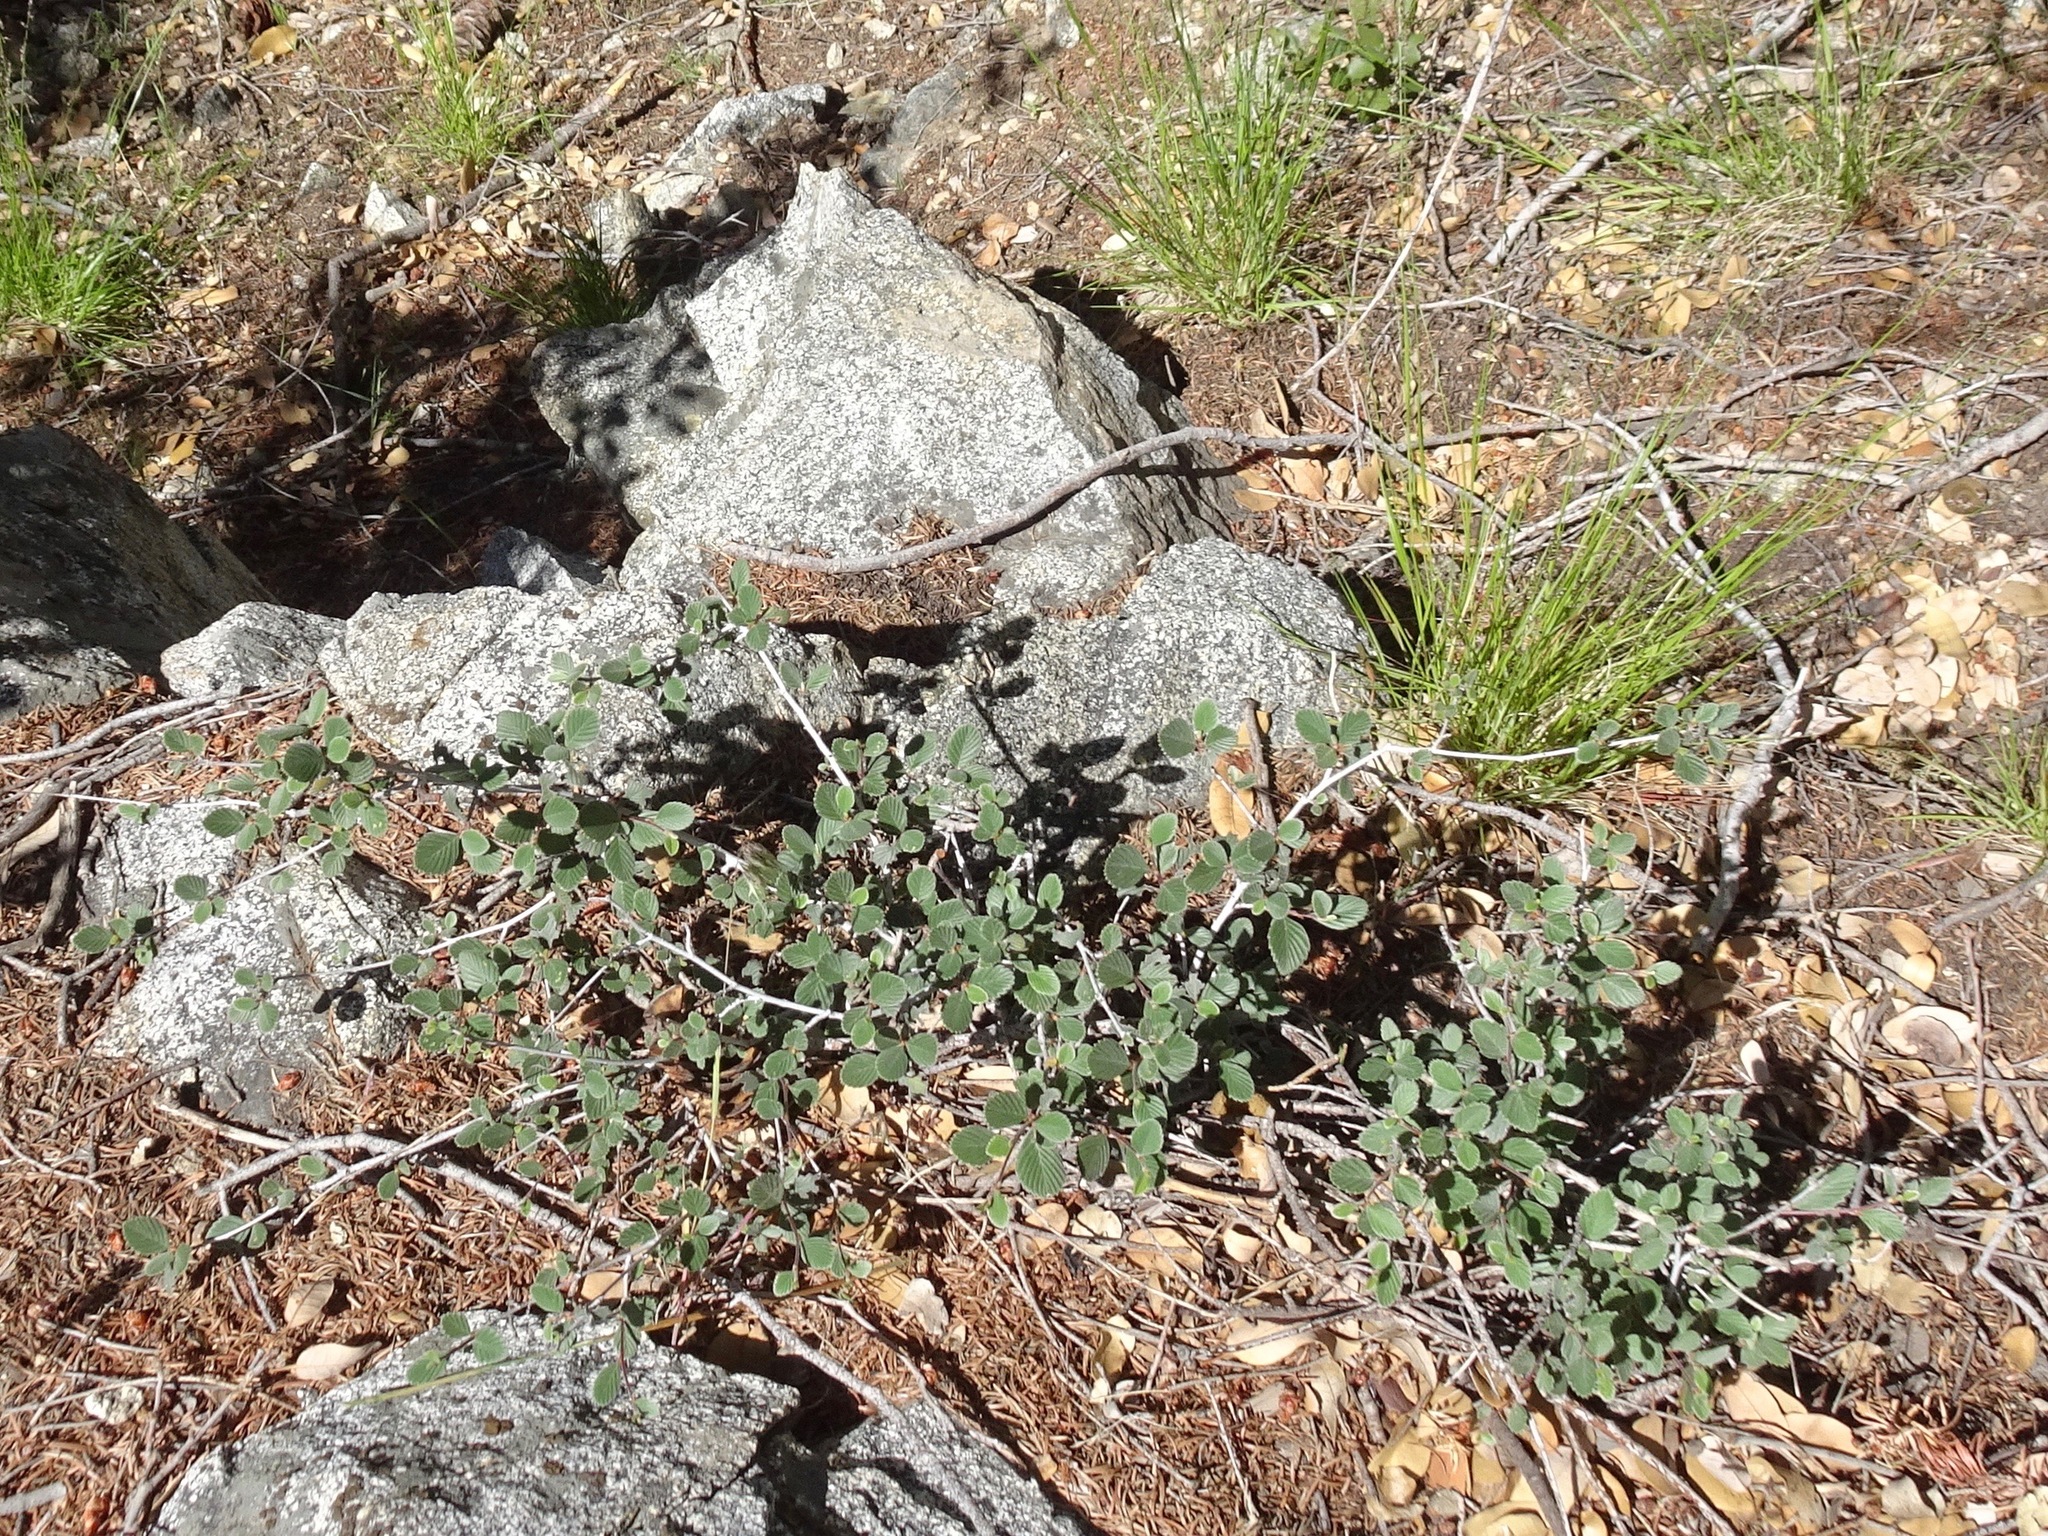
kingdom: Plantae
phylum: Tracheophyta
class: Magnoliopsida
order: Rosales
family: Rosaceae
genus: Cercocarpus
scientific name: Cercocarpus betuloides
